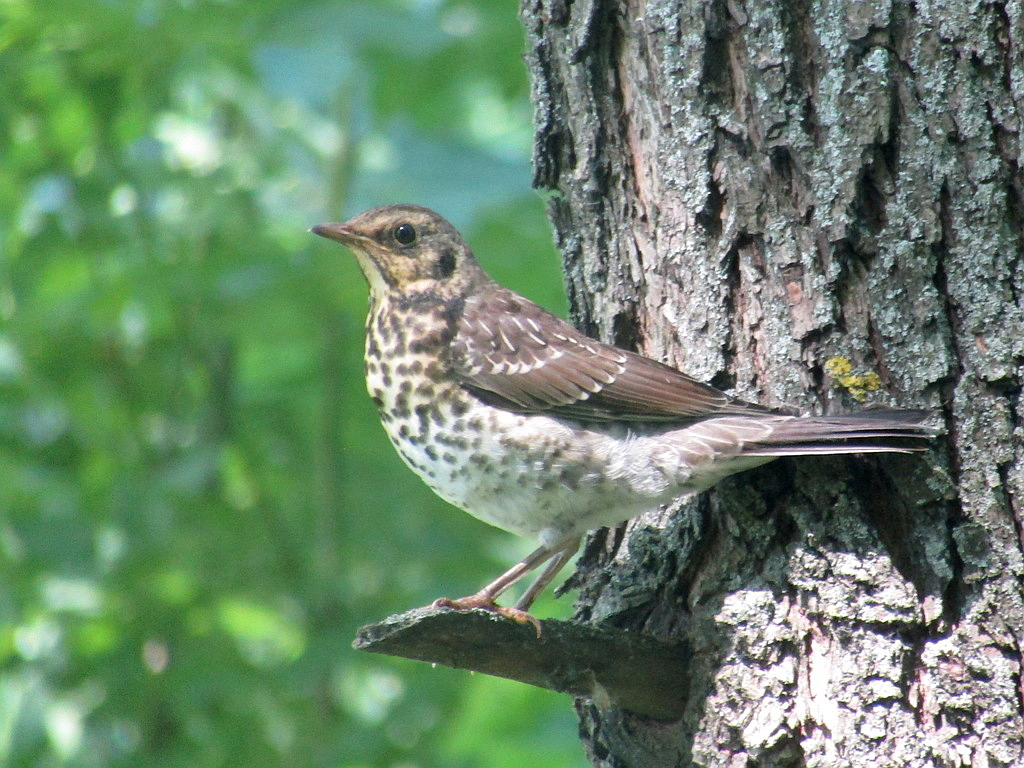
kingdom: Animalia
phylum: Chordata
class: Aves
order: Passeriformes
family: Turdidae
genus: Turdus
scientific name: Turdus pilaris
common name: Fieldfare
